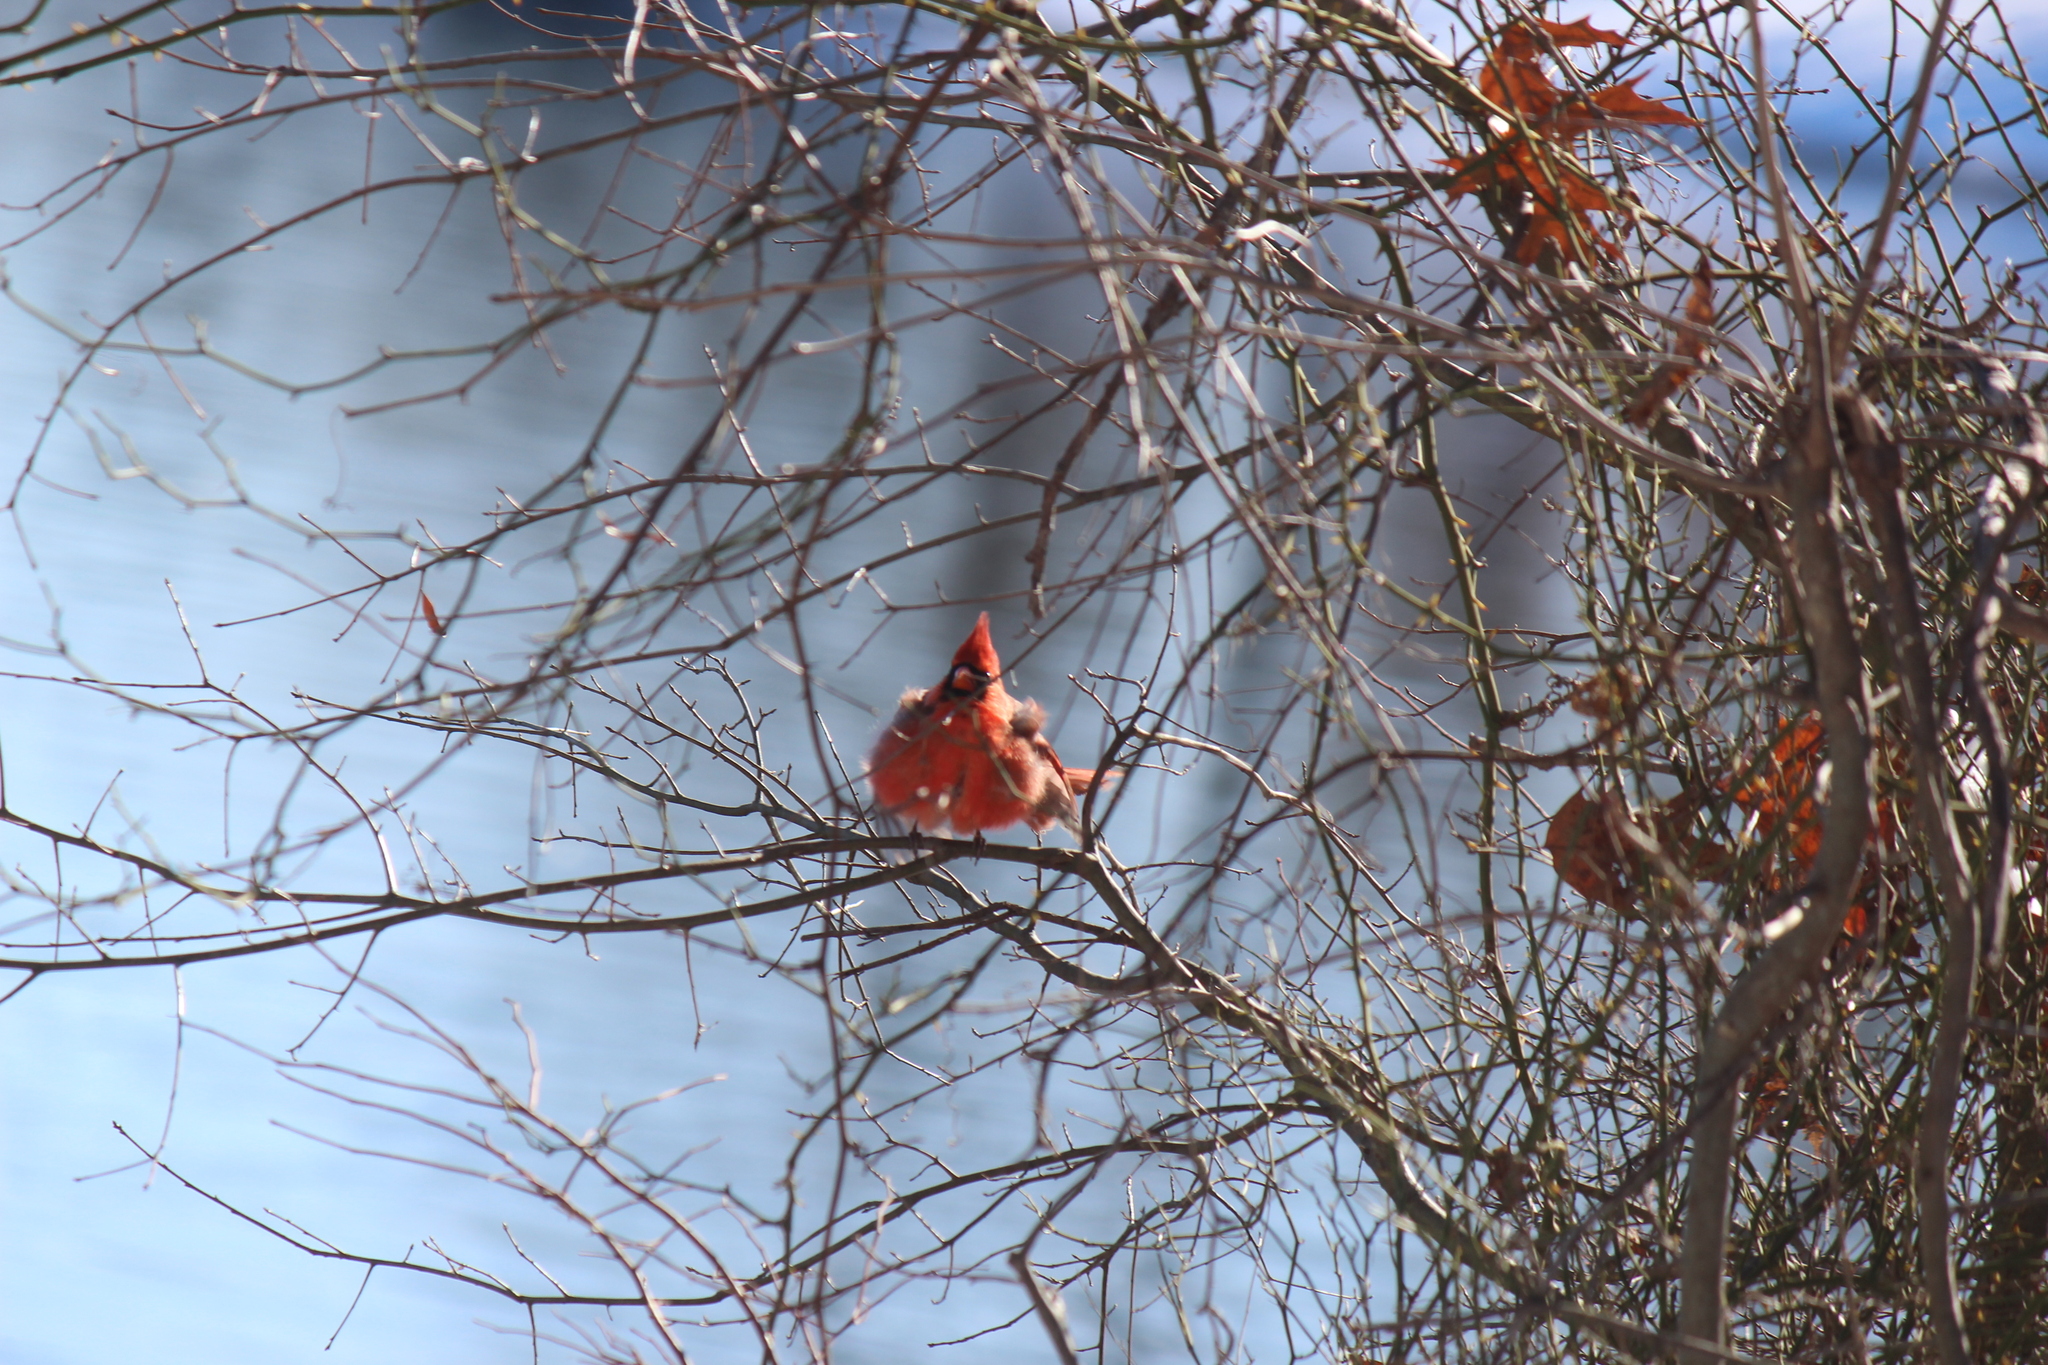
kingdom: Animalia
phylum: Chordata
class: Aves
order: Passeriformes
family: Cardinalidae
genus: Cardinalis
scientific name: Cardinalis cardinalis
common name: Northern cardinal
